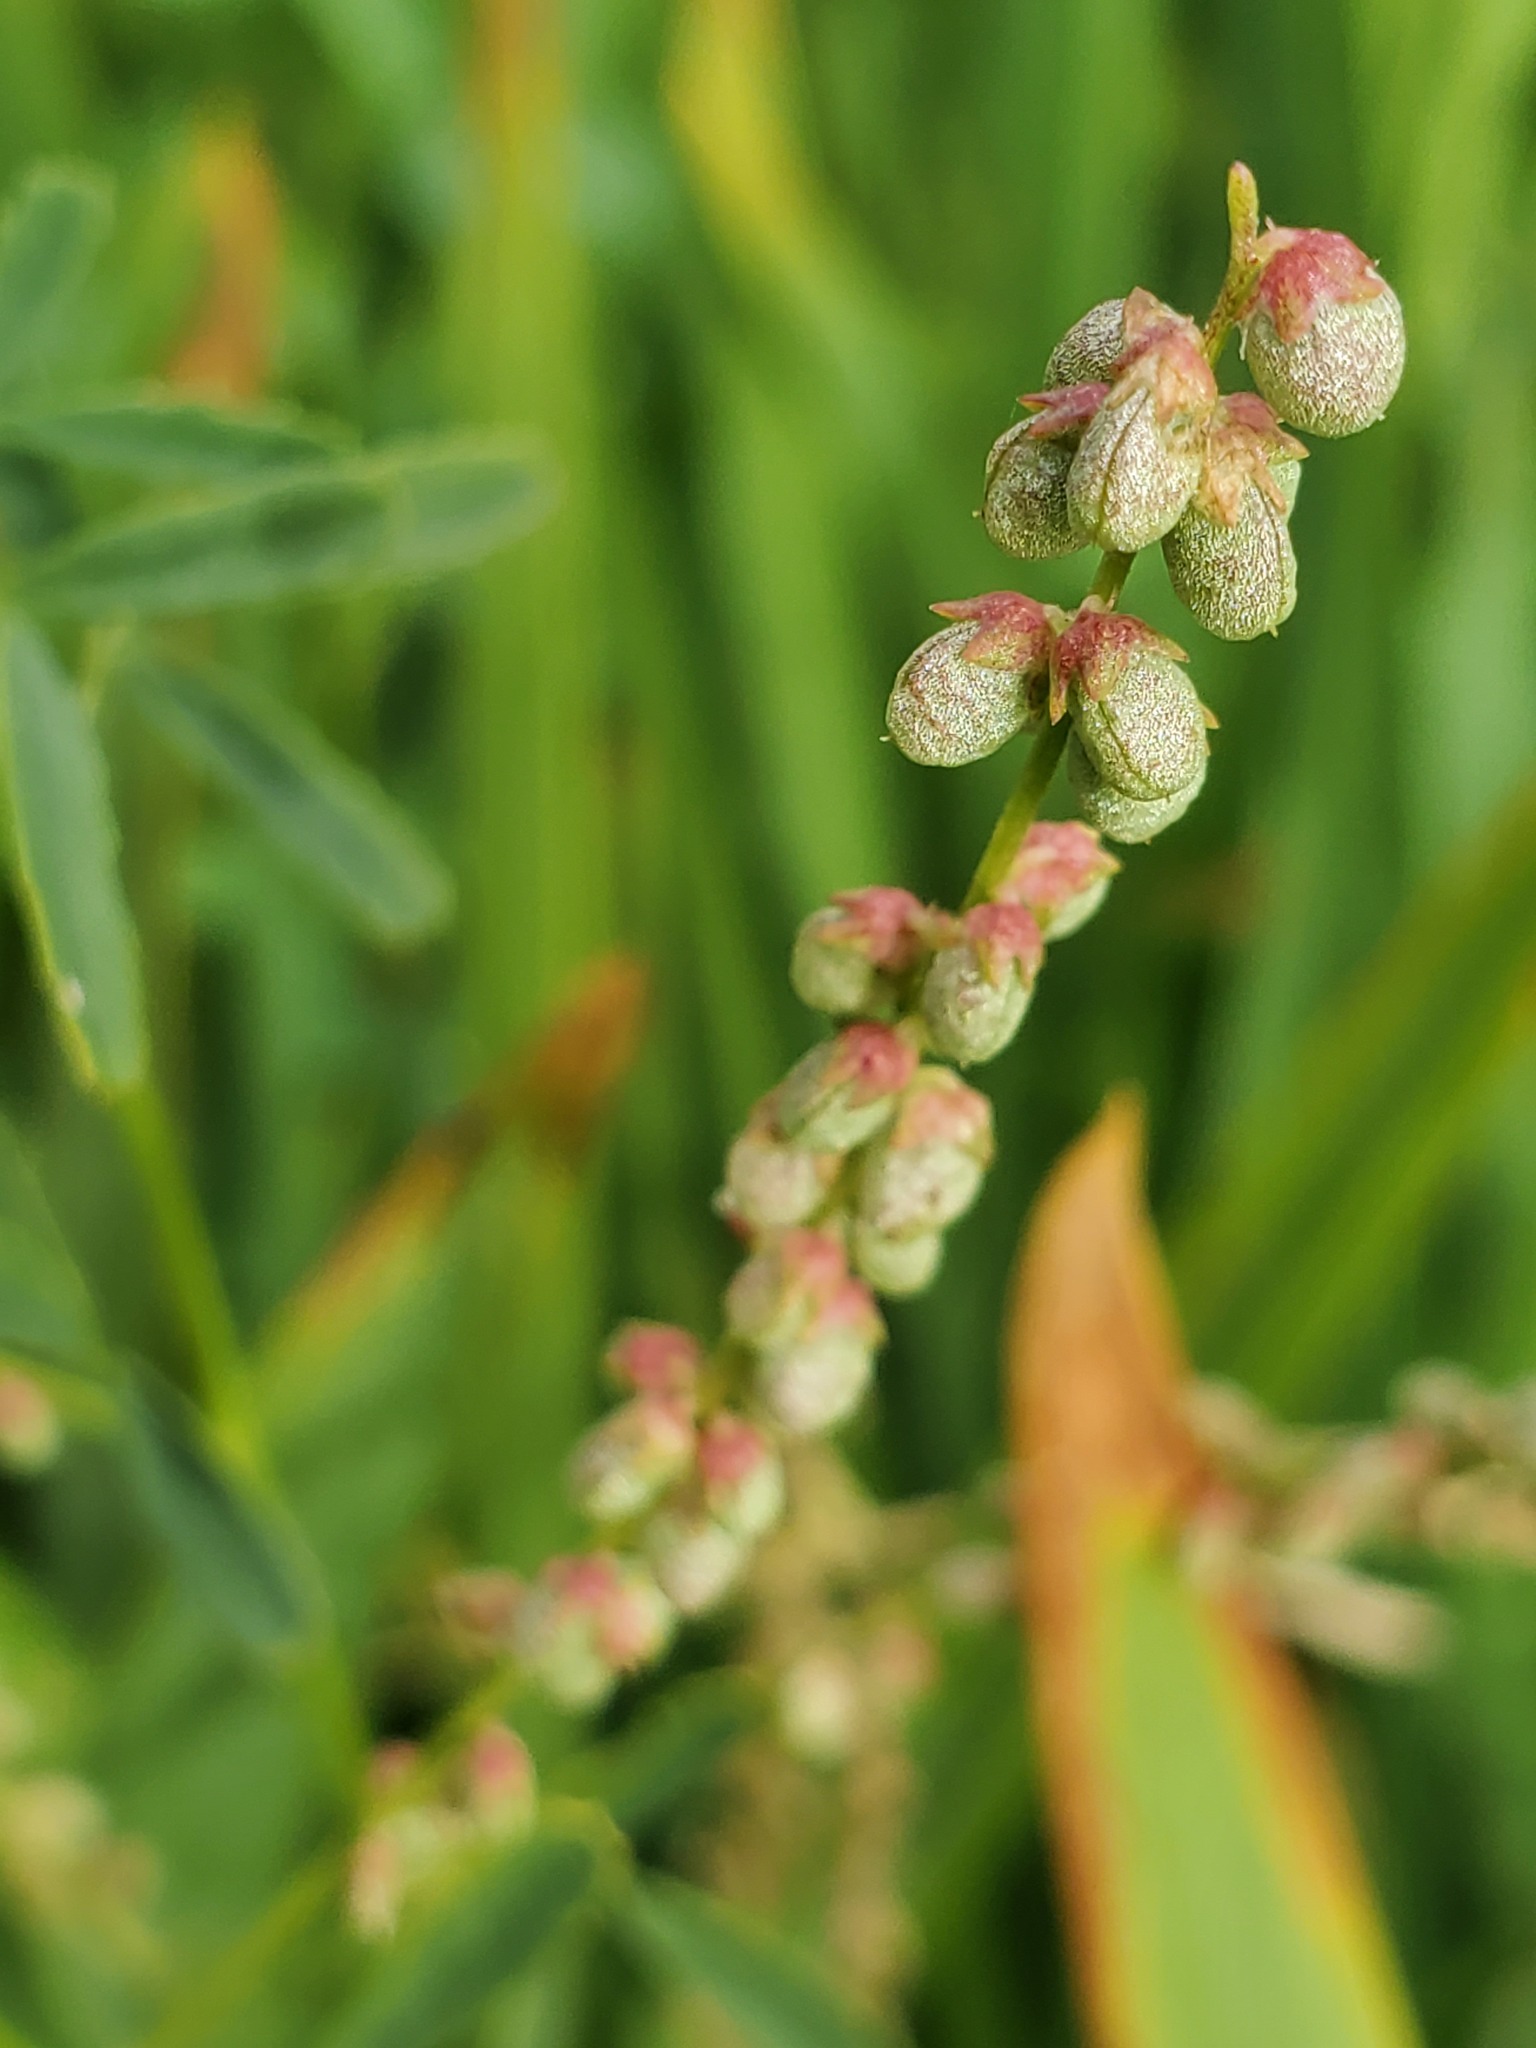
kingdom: Plantae
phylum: Tracheophyta
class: Magnoliopsida
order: Fabales
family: Fabaceae
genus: Melilotus
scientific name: Melilotus indicus
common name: Small melilot
